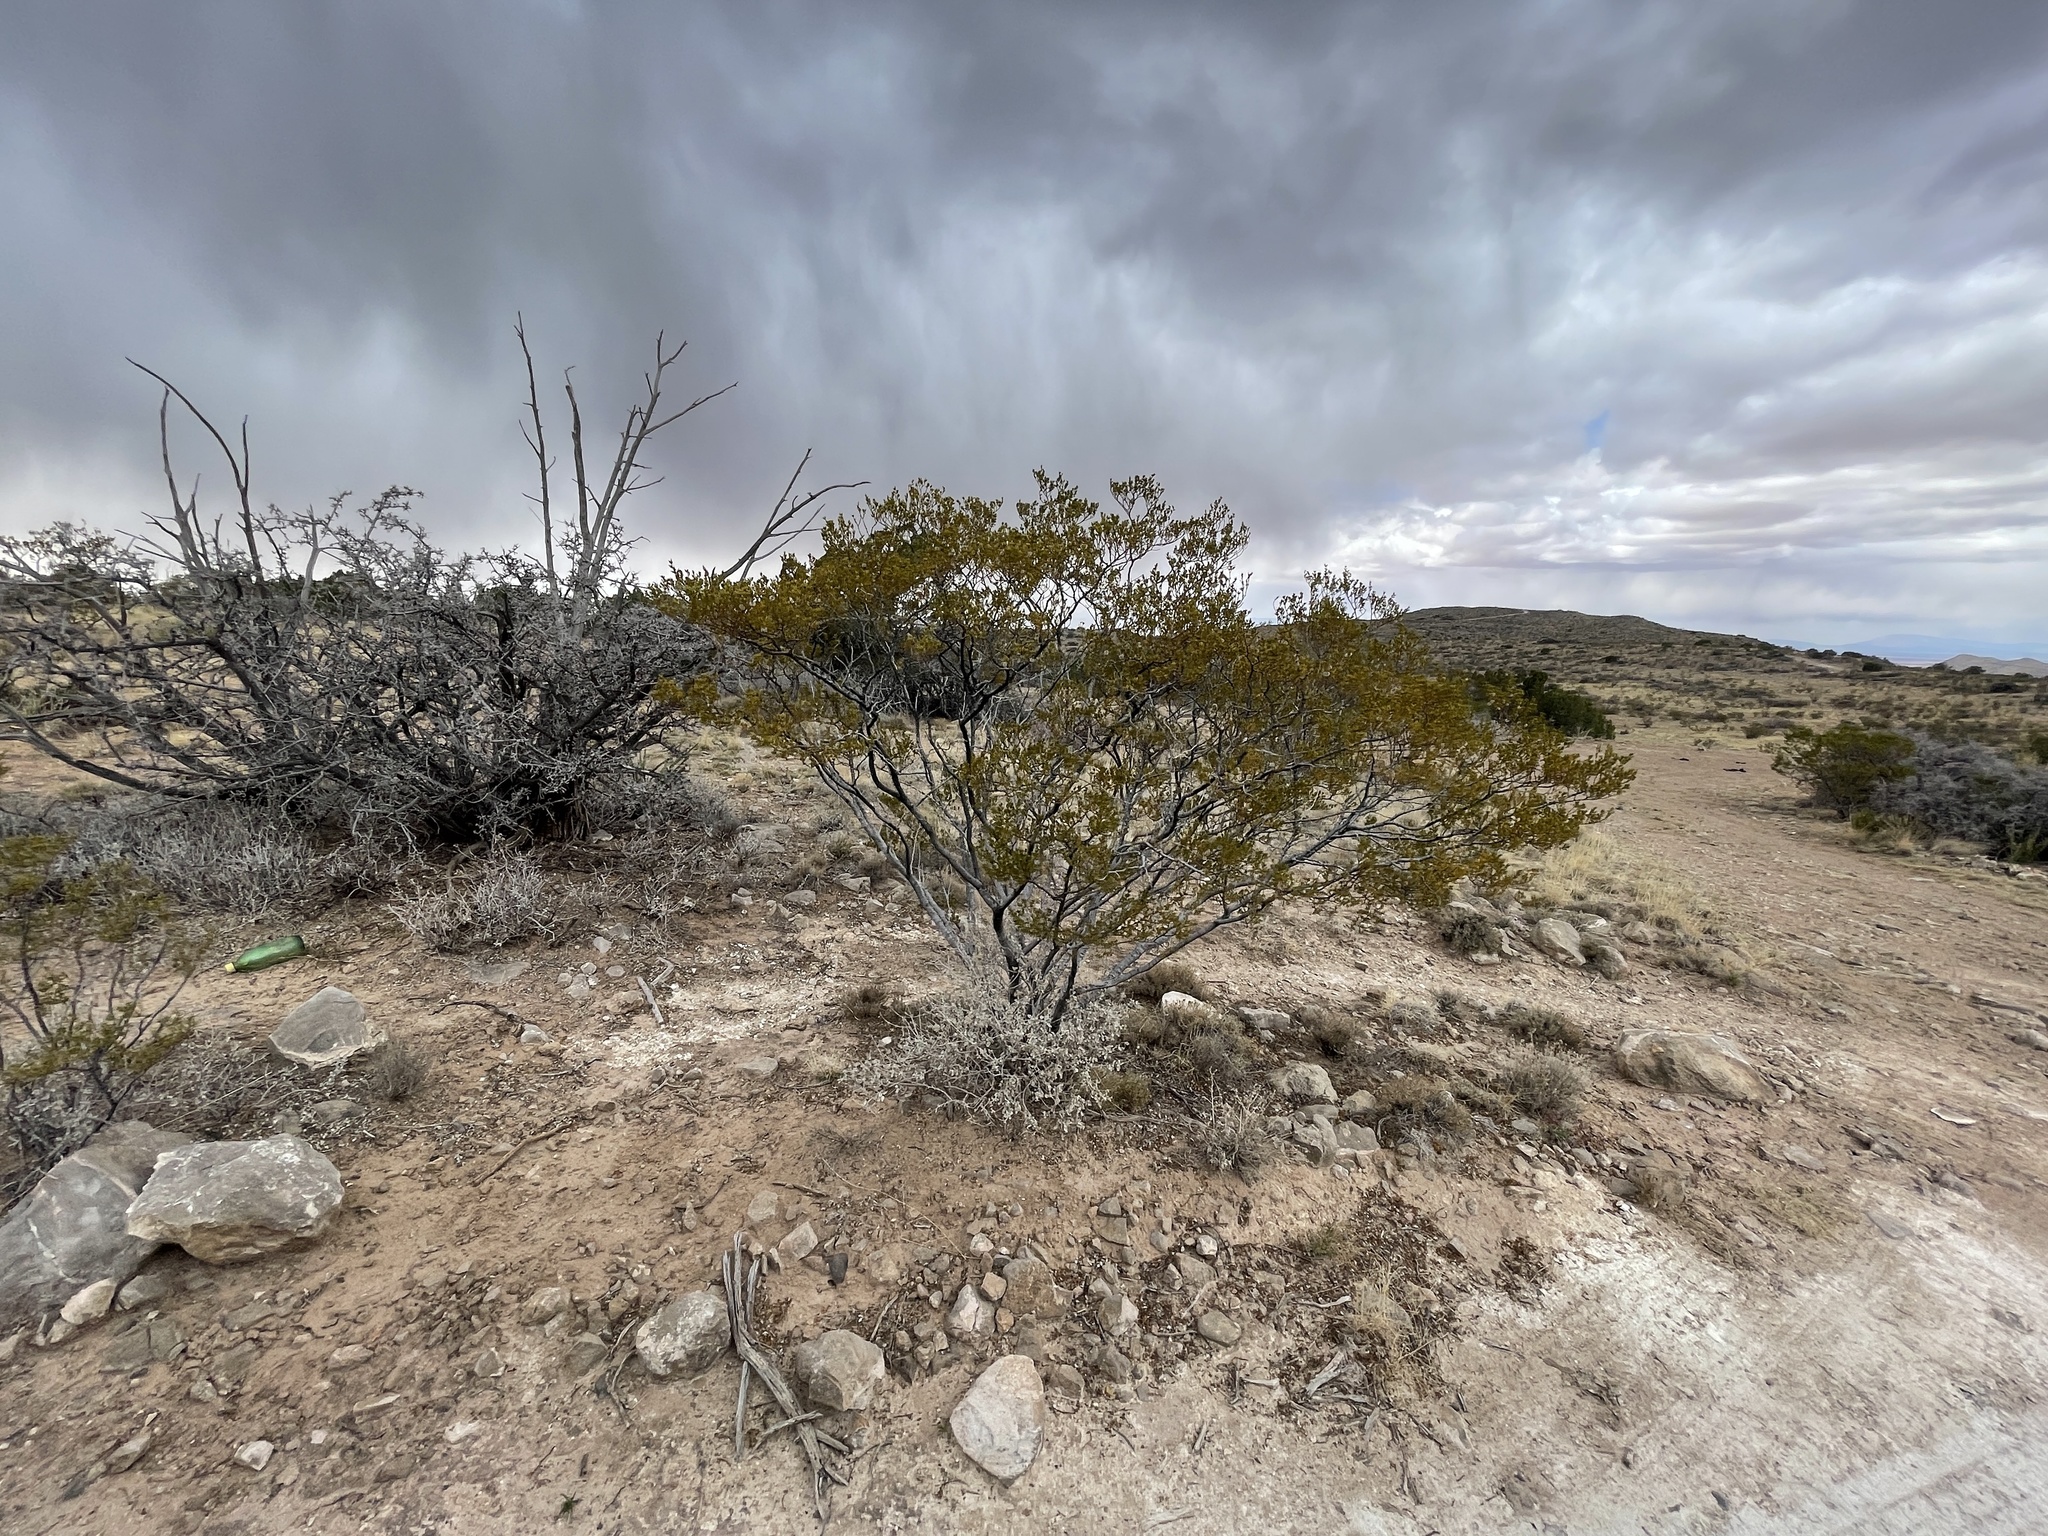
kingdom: Plantae
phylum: Tracheophyta
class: Magnoliopsida
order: Zygophyllales
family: Zygophyllaceae
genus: Larrea
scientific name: Larrea tridentata
